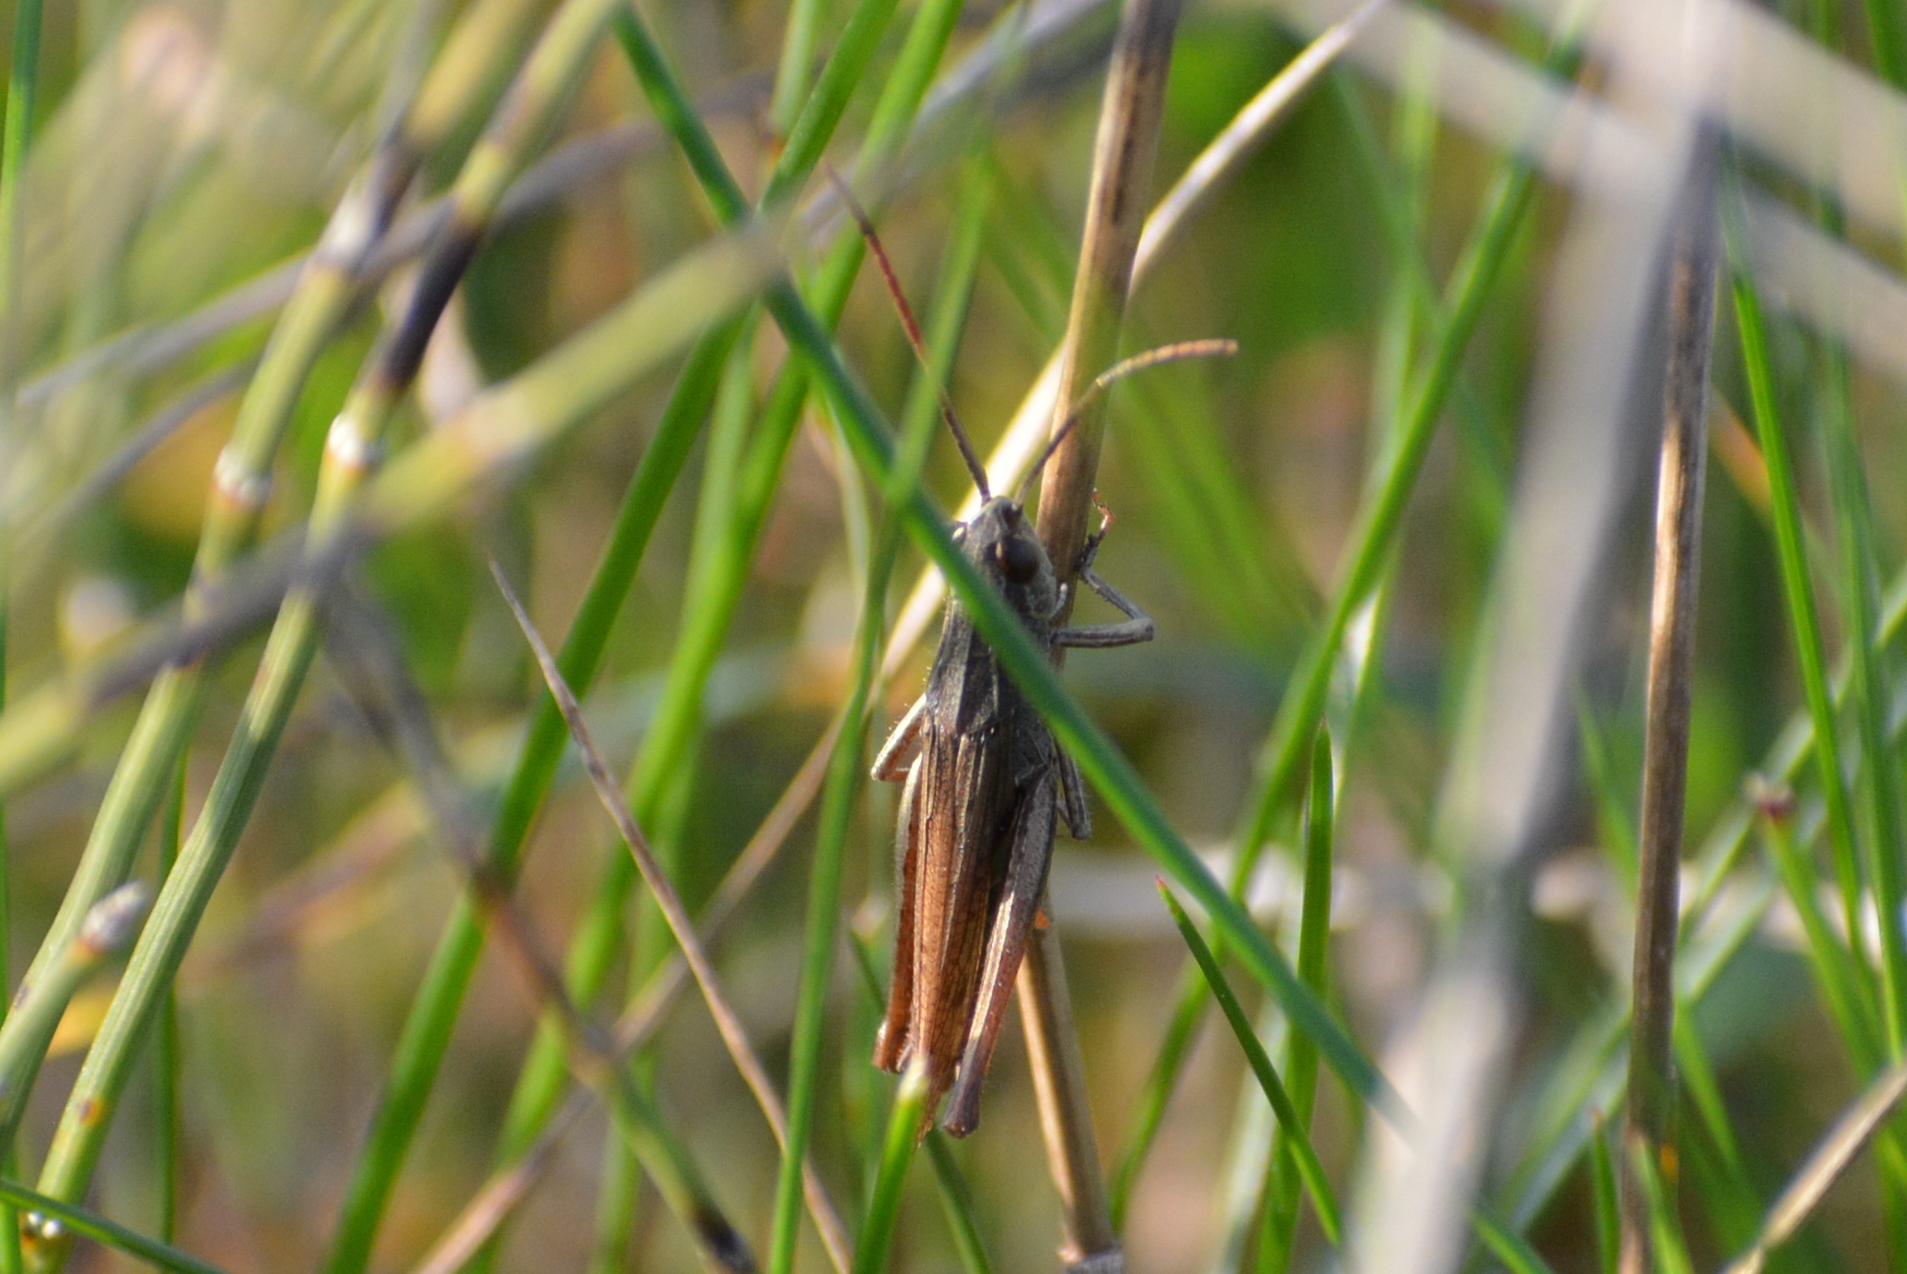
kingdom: Animalia
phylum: Arthropoda
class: Insecta
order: Orthoptera
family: Acrididae
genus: Chorthippus
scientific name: Chorthippus dorsatus
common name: Steppe grasshopper
